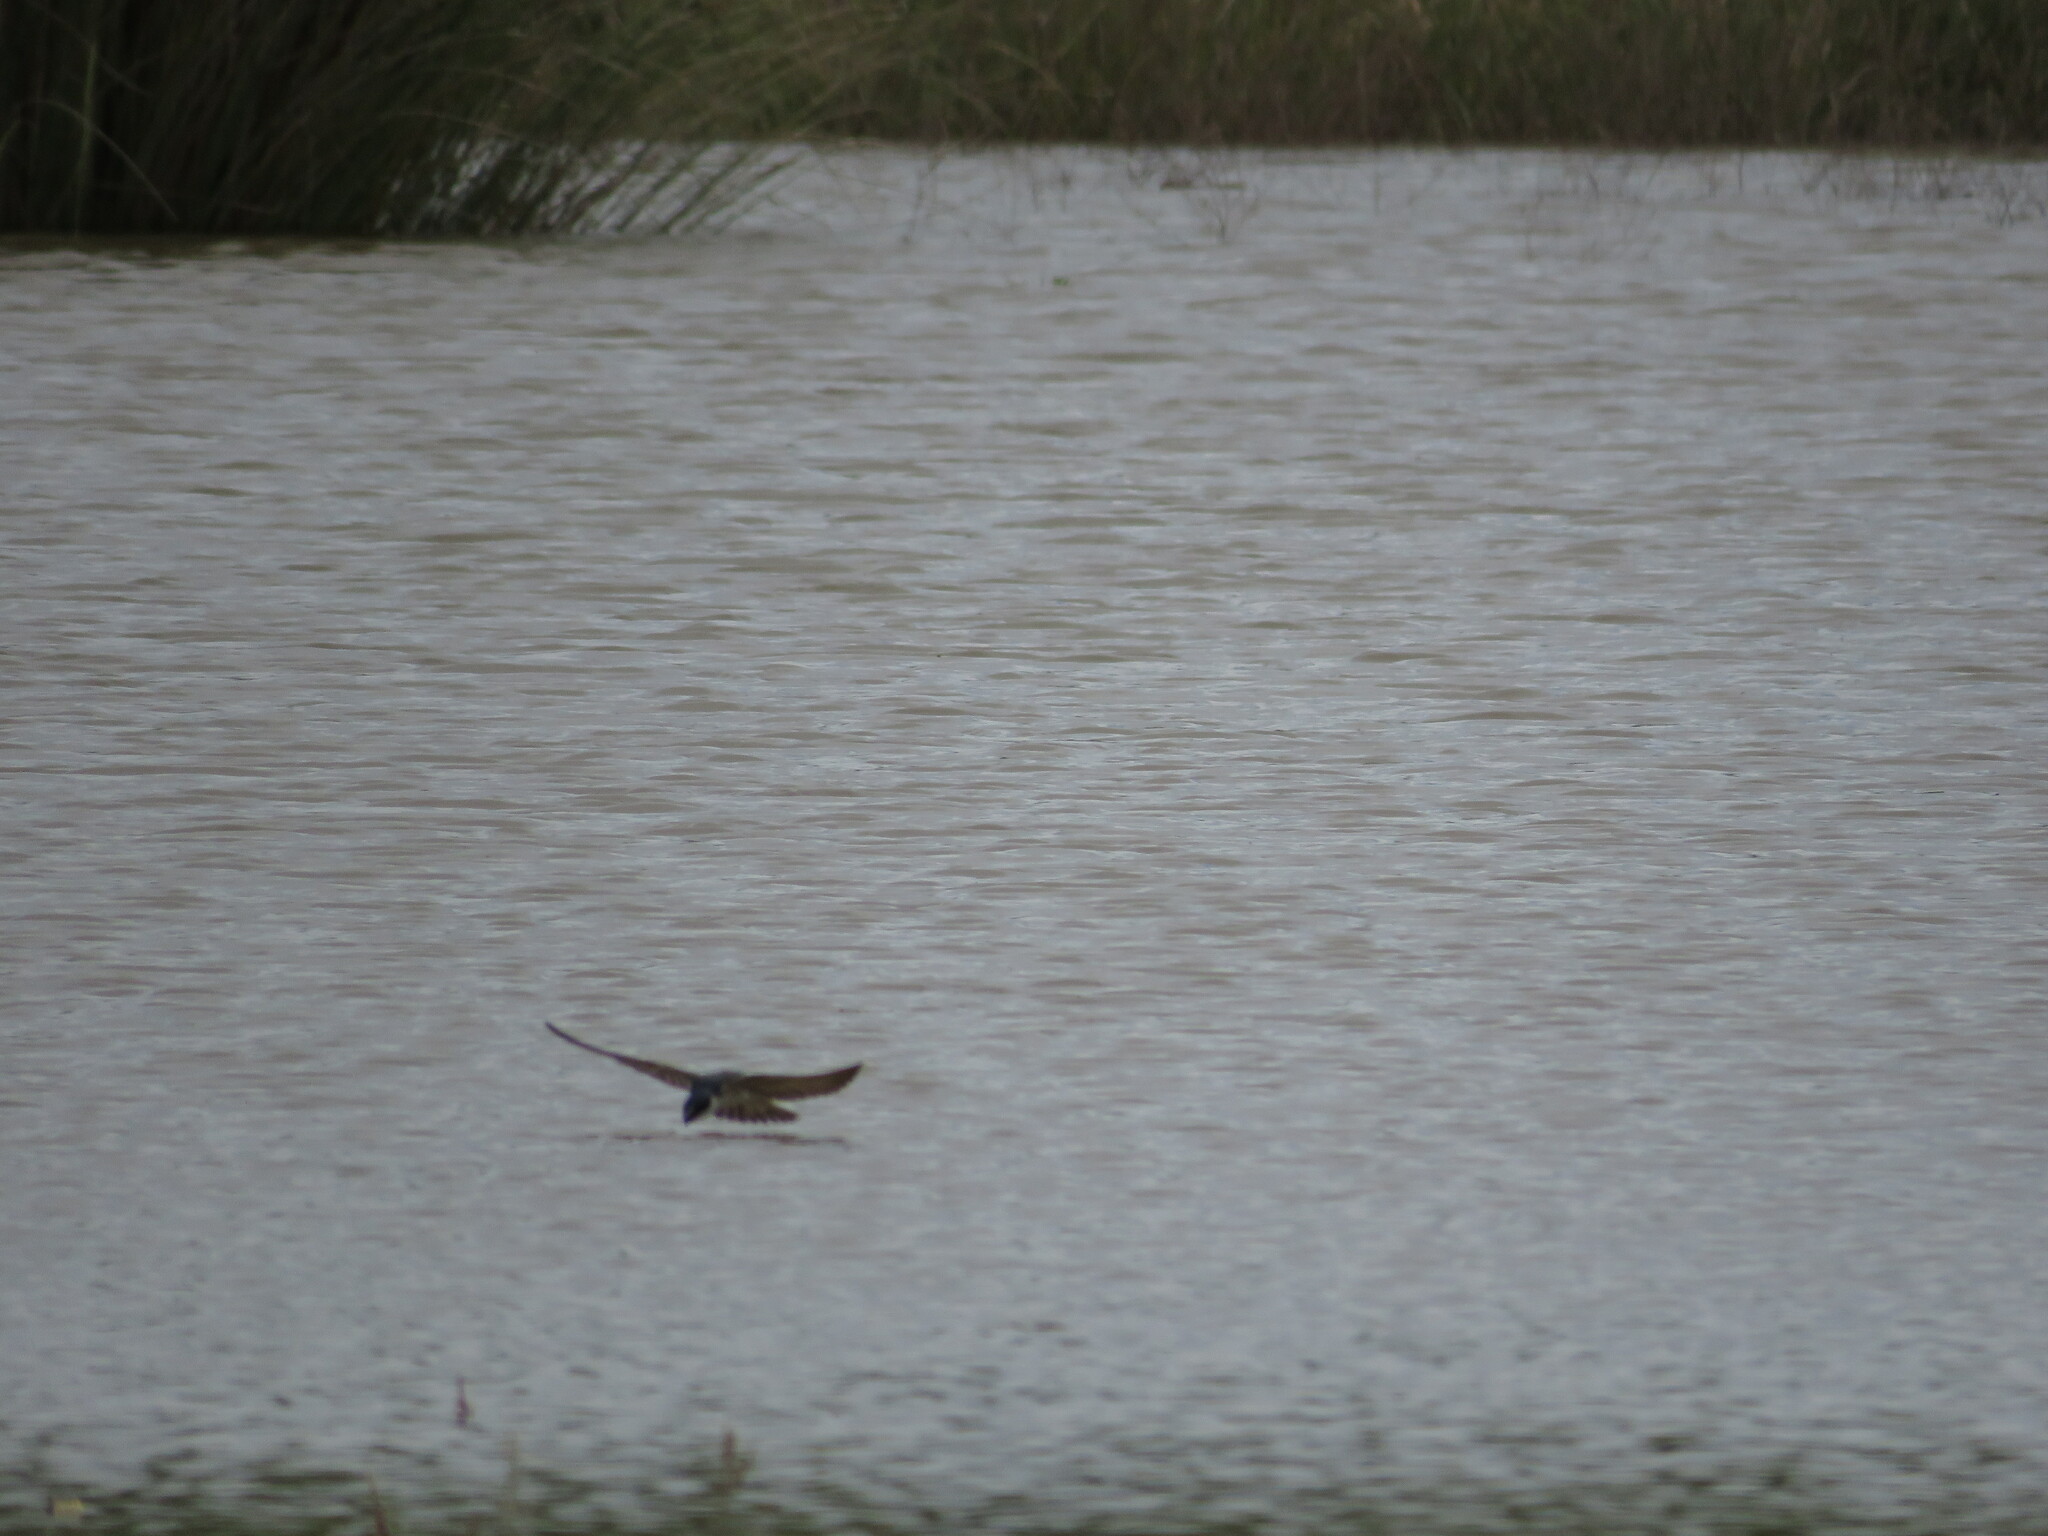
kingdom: Animalia
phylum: Chordata
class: Aves
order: Passeriformes
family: Hirundinidae
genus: Tachycineta
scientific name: Tachycineta leucorrhoa
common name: White-rumped swallow
